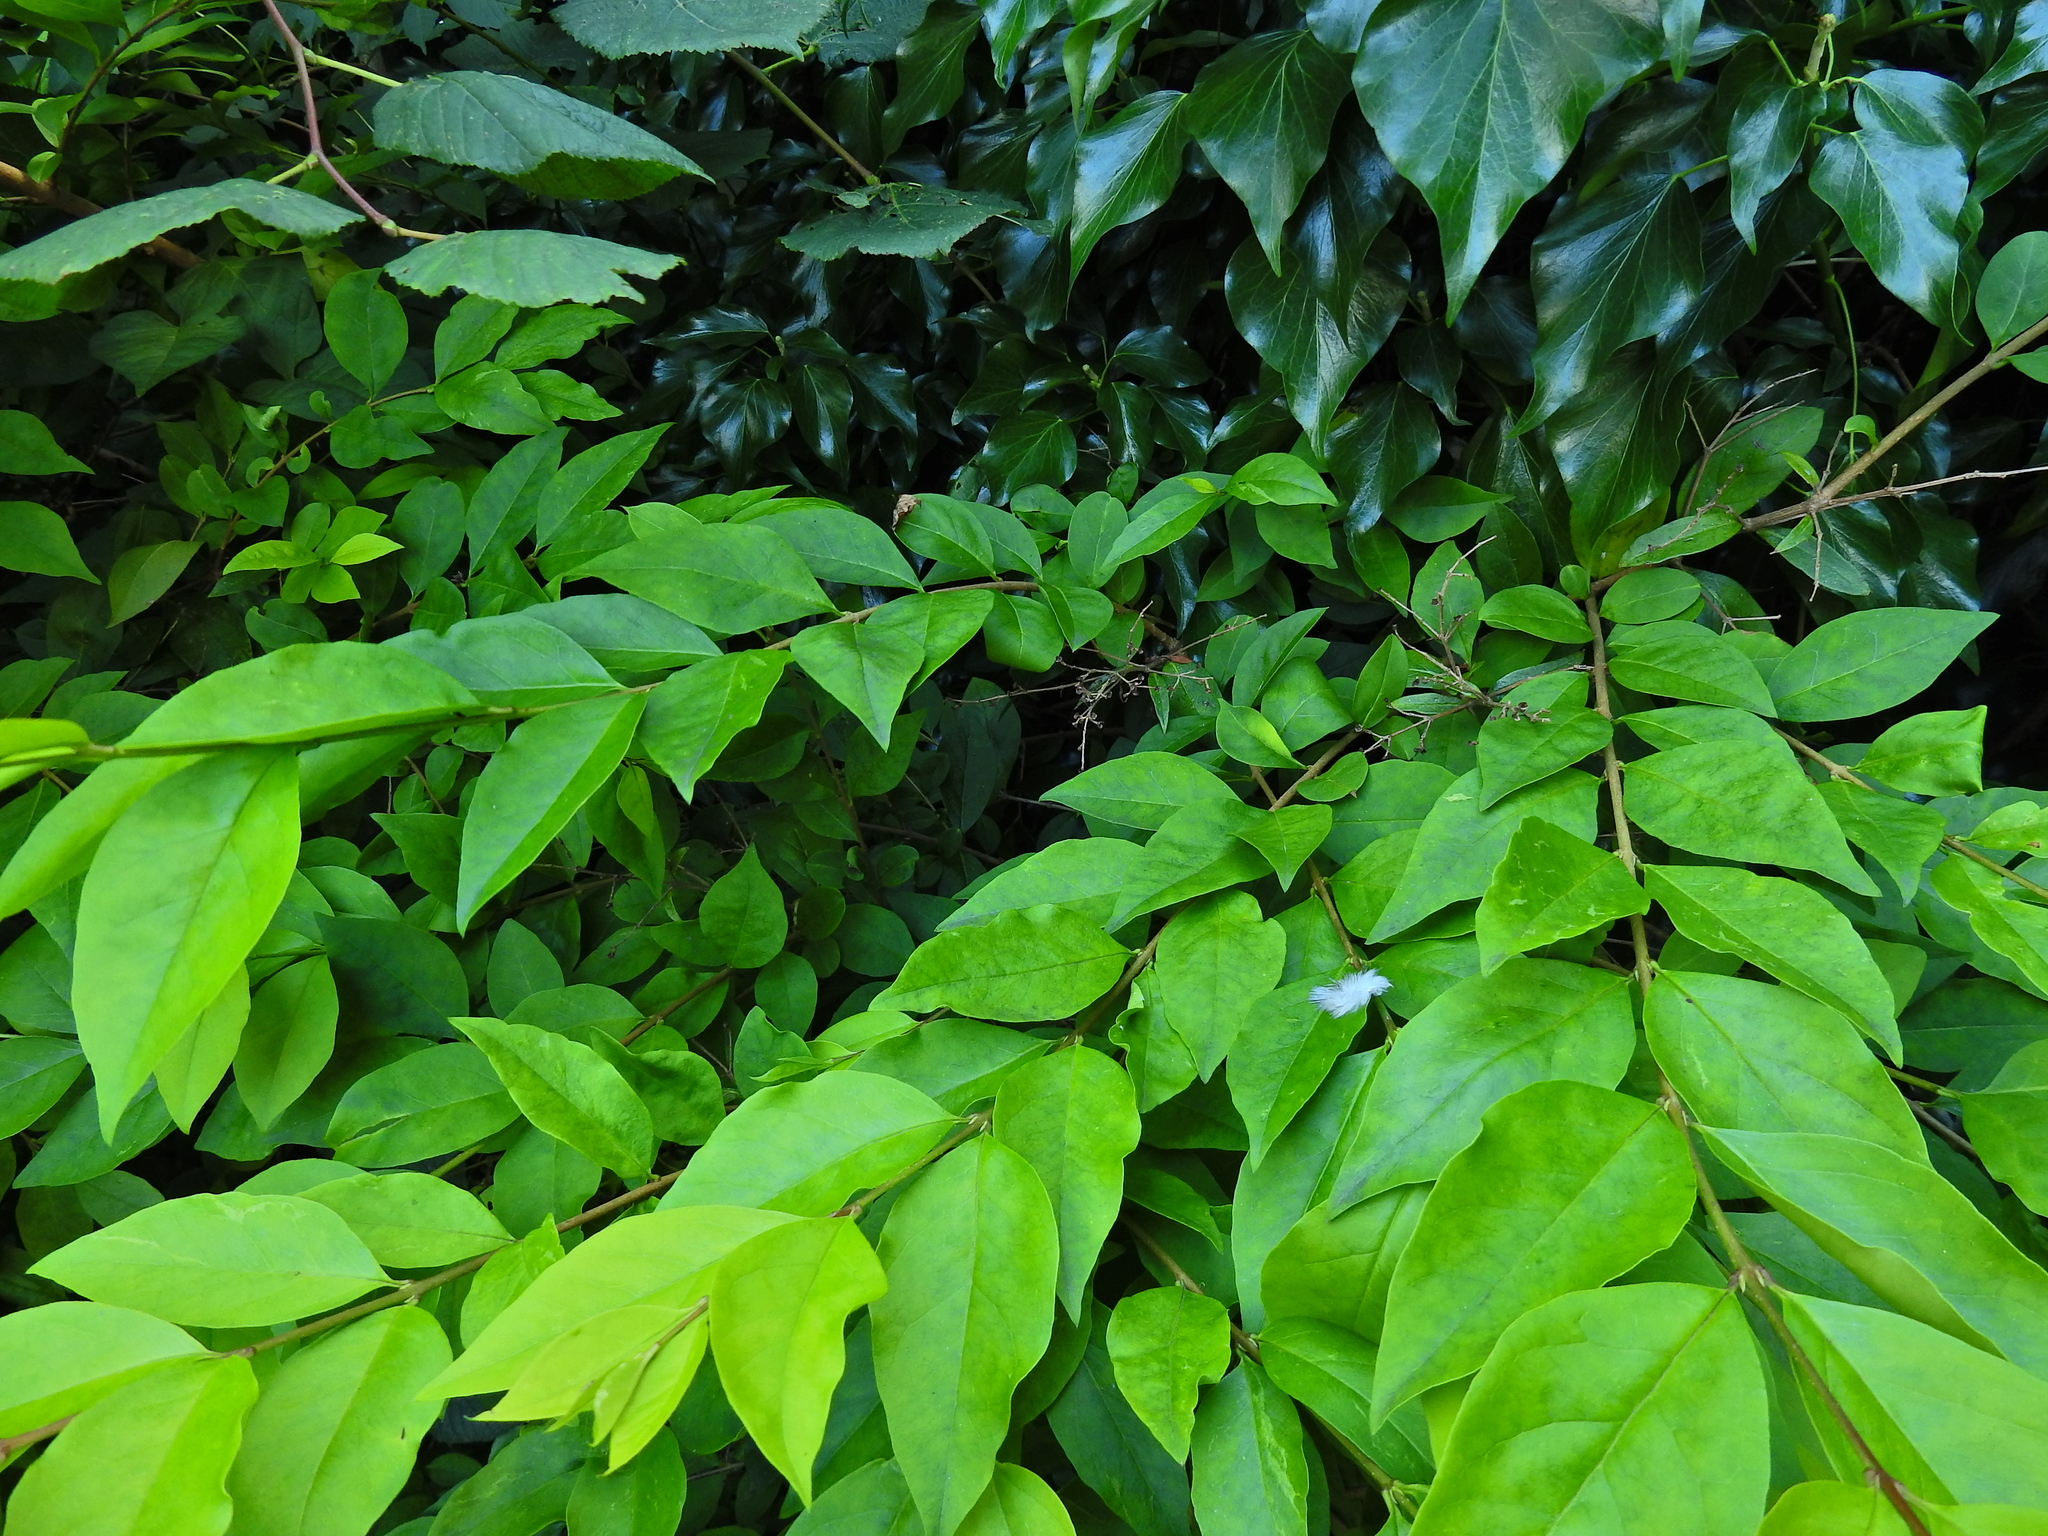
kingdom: Plantae
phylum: Tracheophyta
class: Magnoliopsida
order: Lamiales
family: Oleaceae
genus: Ligustrum
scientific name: Ligustrum ovalifolium
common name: California privet
